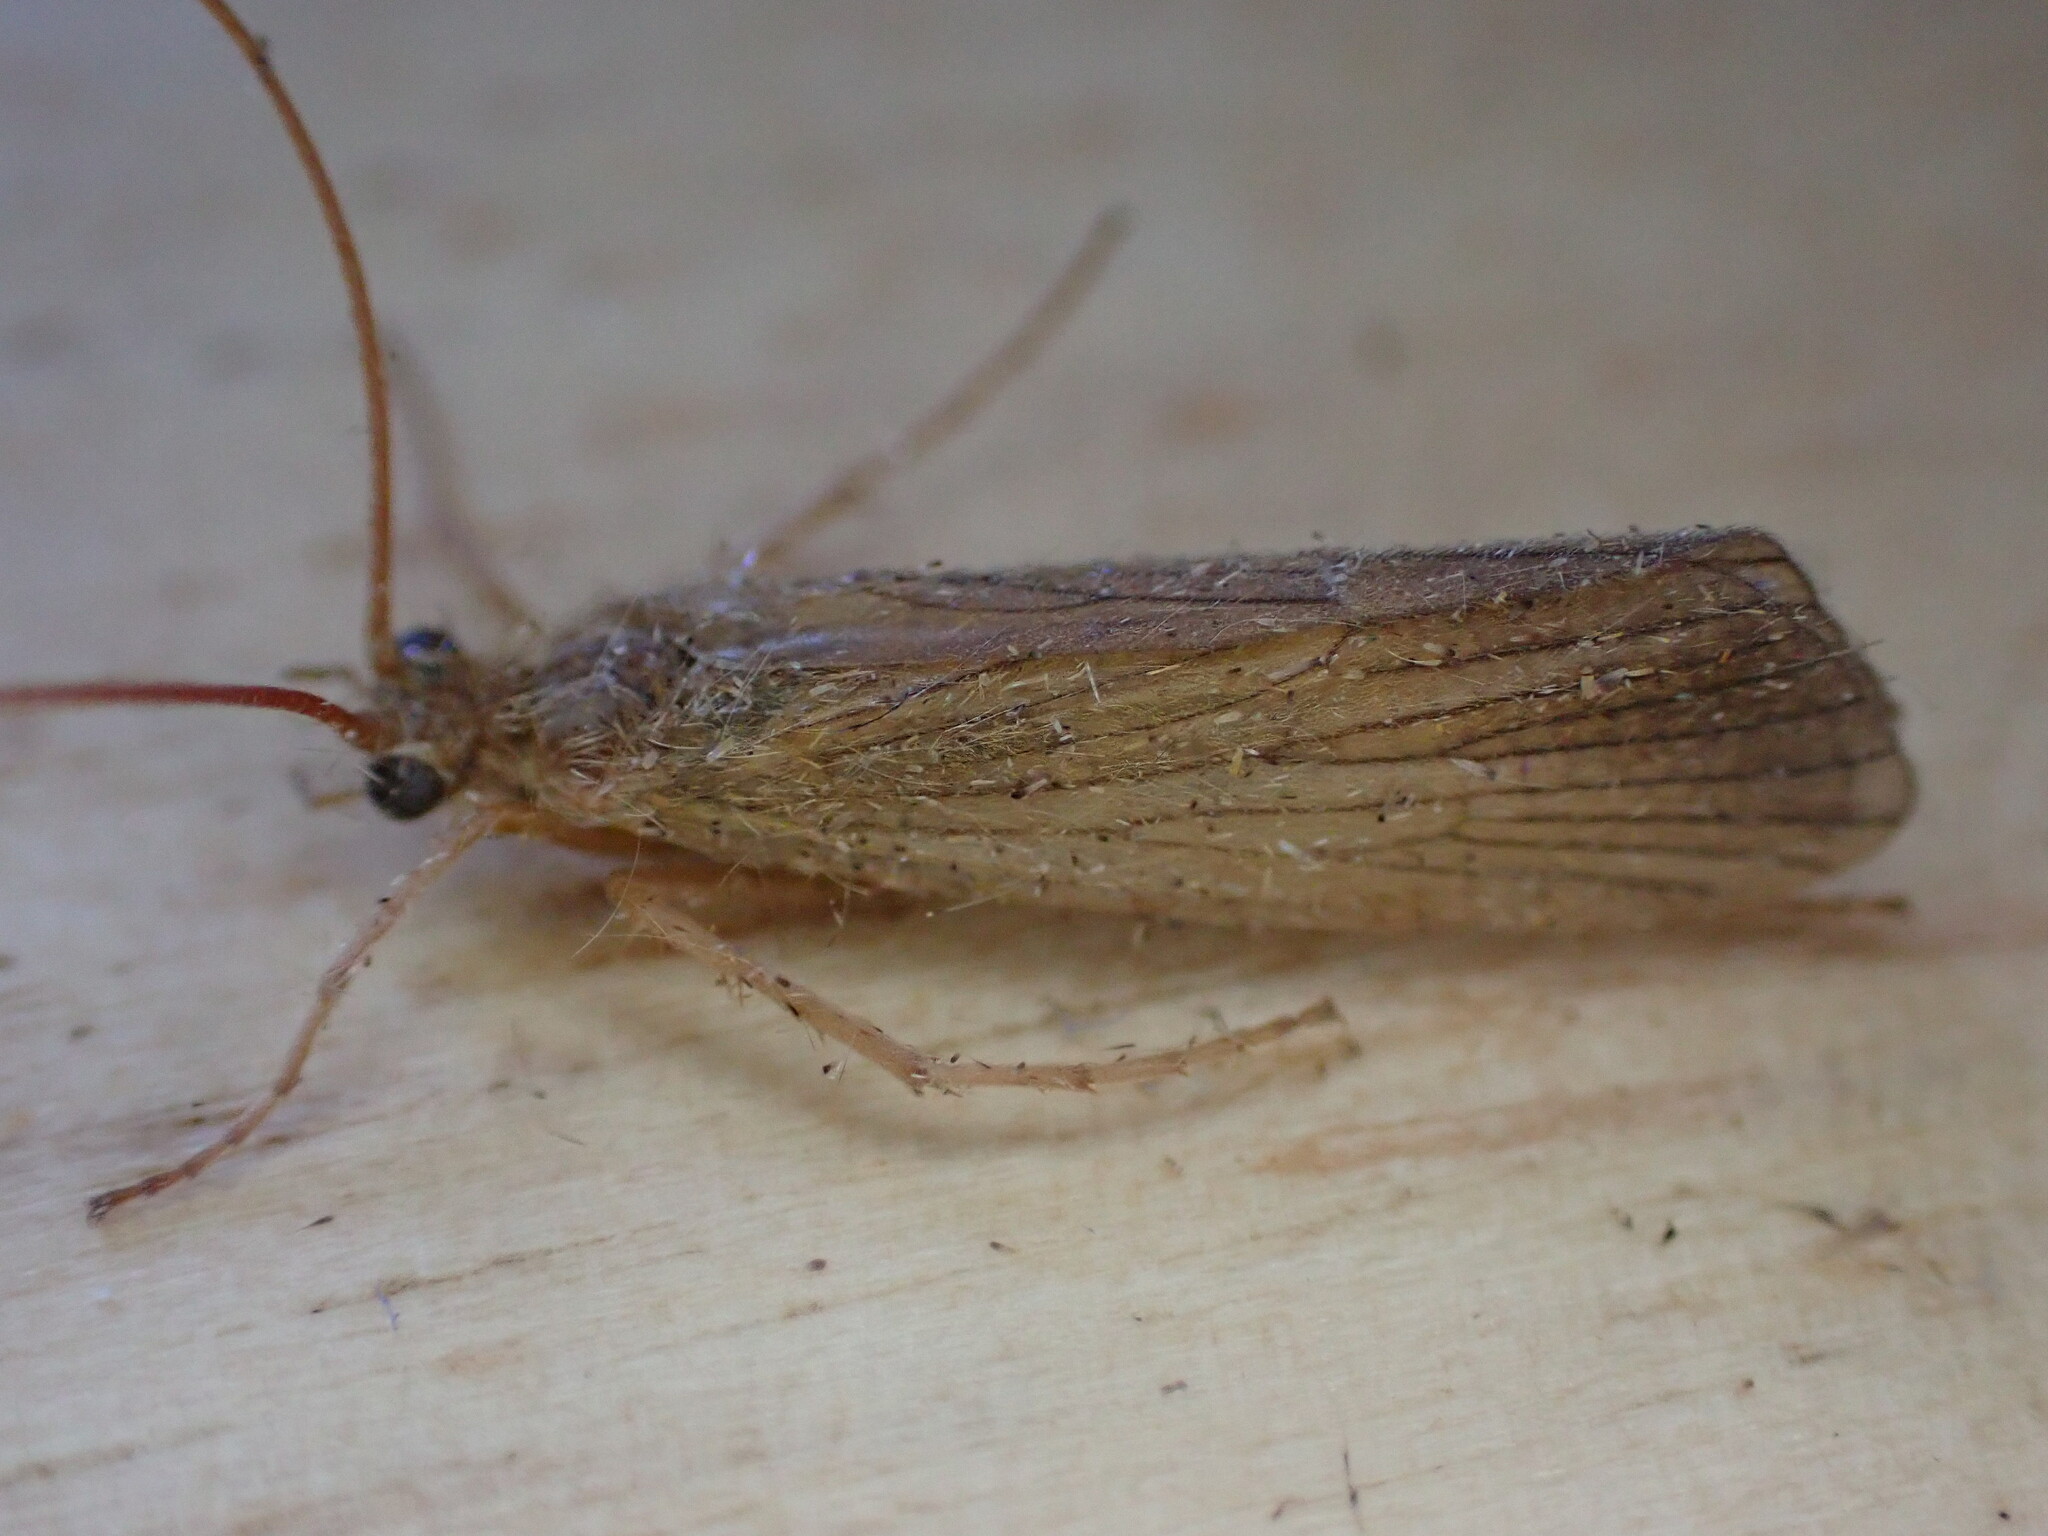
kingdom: Animalia
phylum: Arthropoda
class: Insecta
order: Trichoptera
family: Phryganeidae
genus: Agrypnia
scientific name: Agrypnia pagetana
